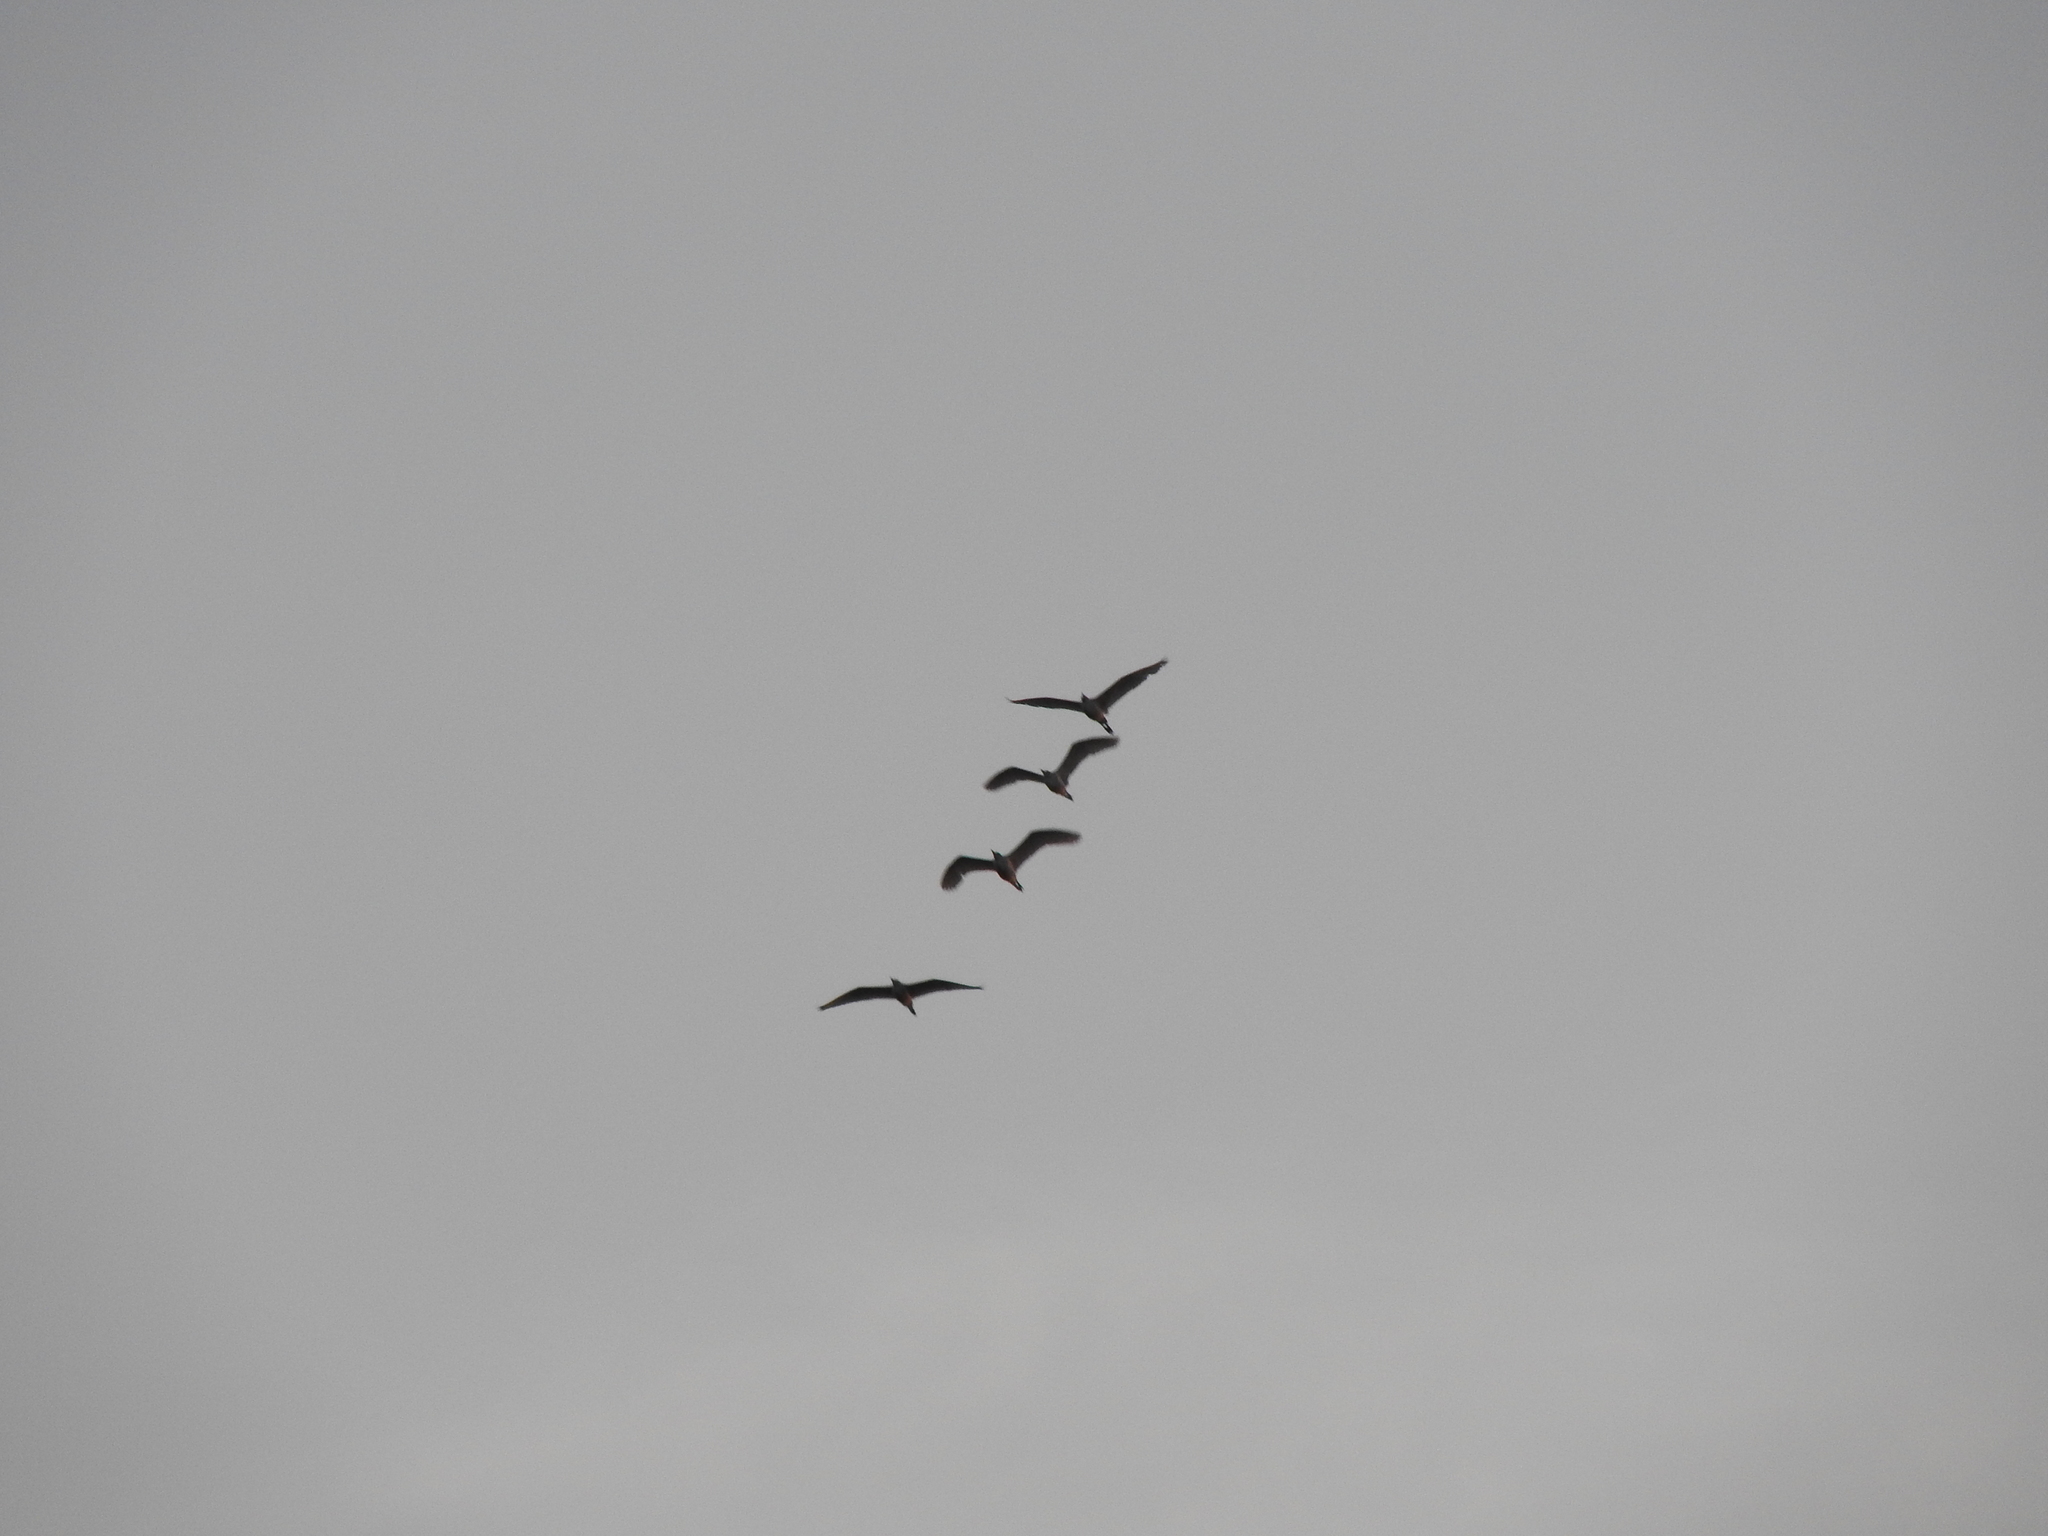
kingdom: Animalia
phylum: Chordata
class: Aves
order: Pelecaniformes
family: Ardeidae
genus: Bubulcus
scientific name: Bubulcus ibis
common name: Cattle egret
